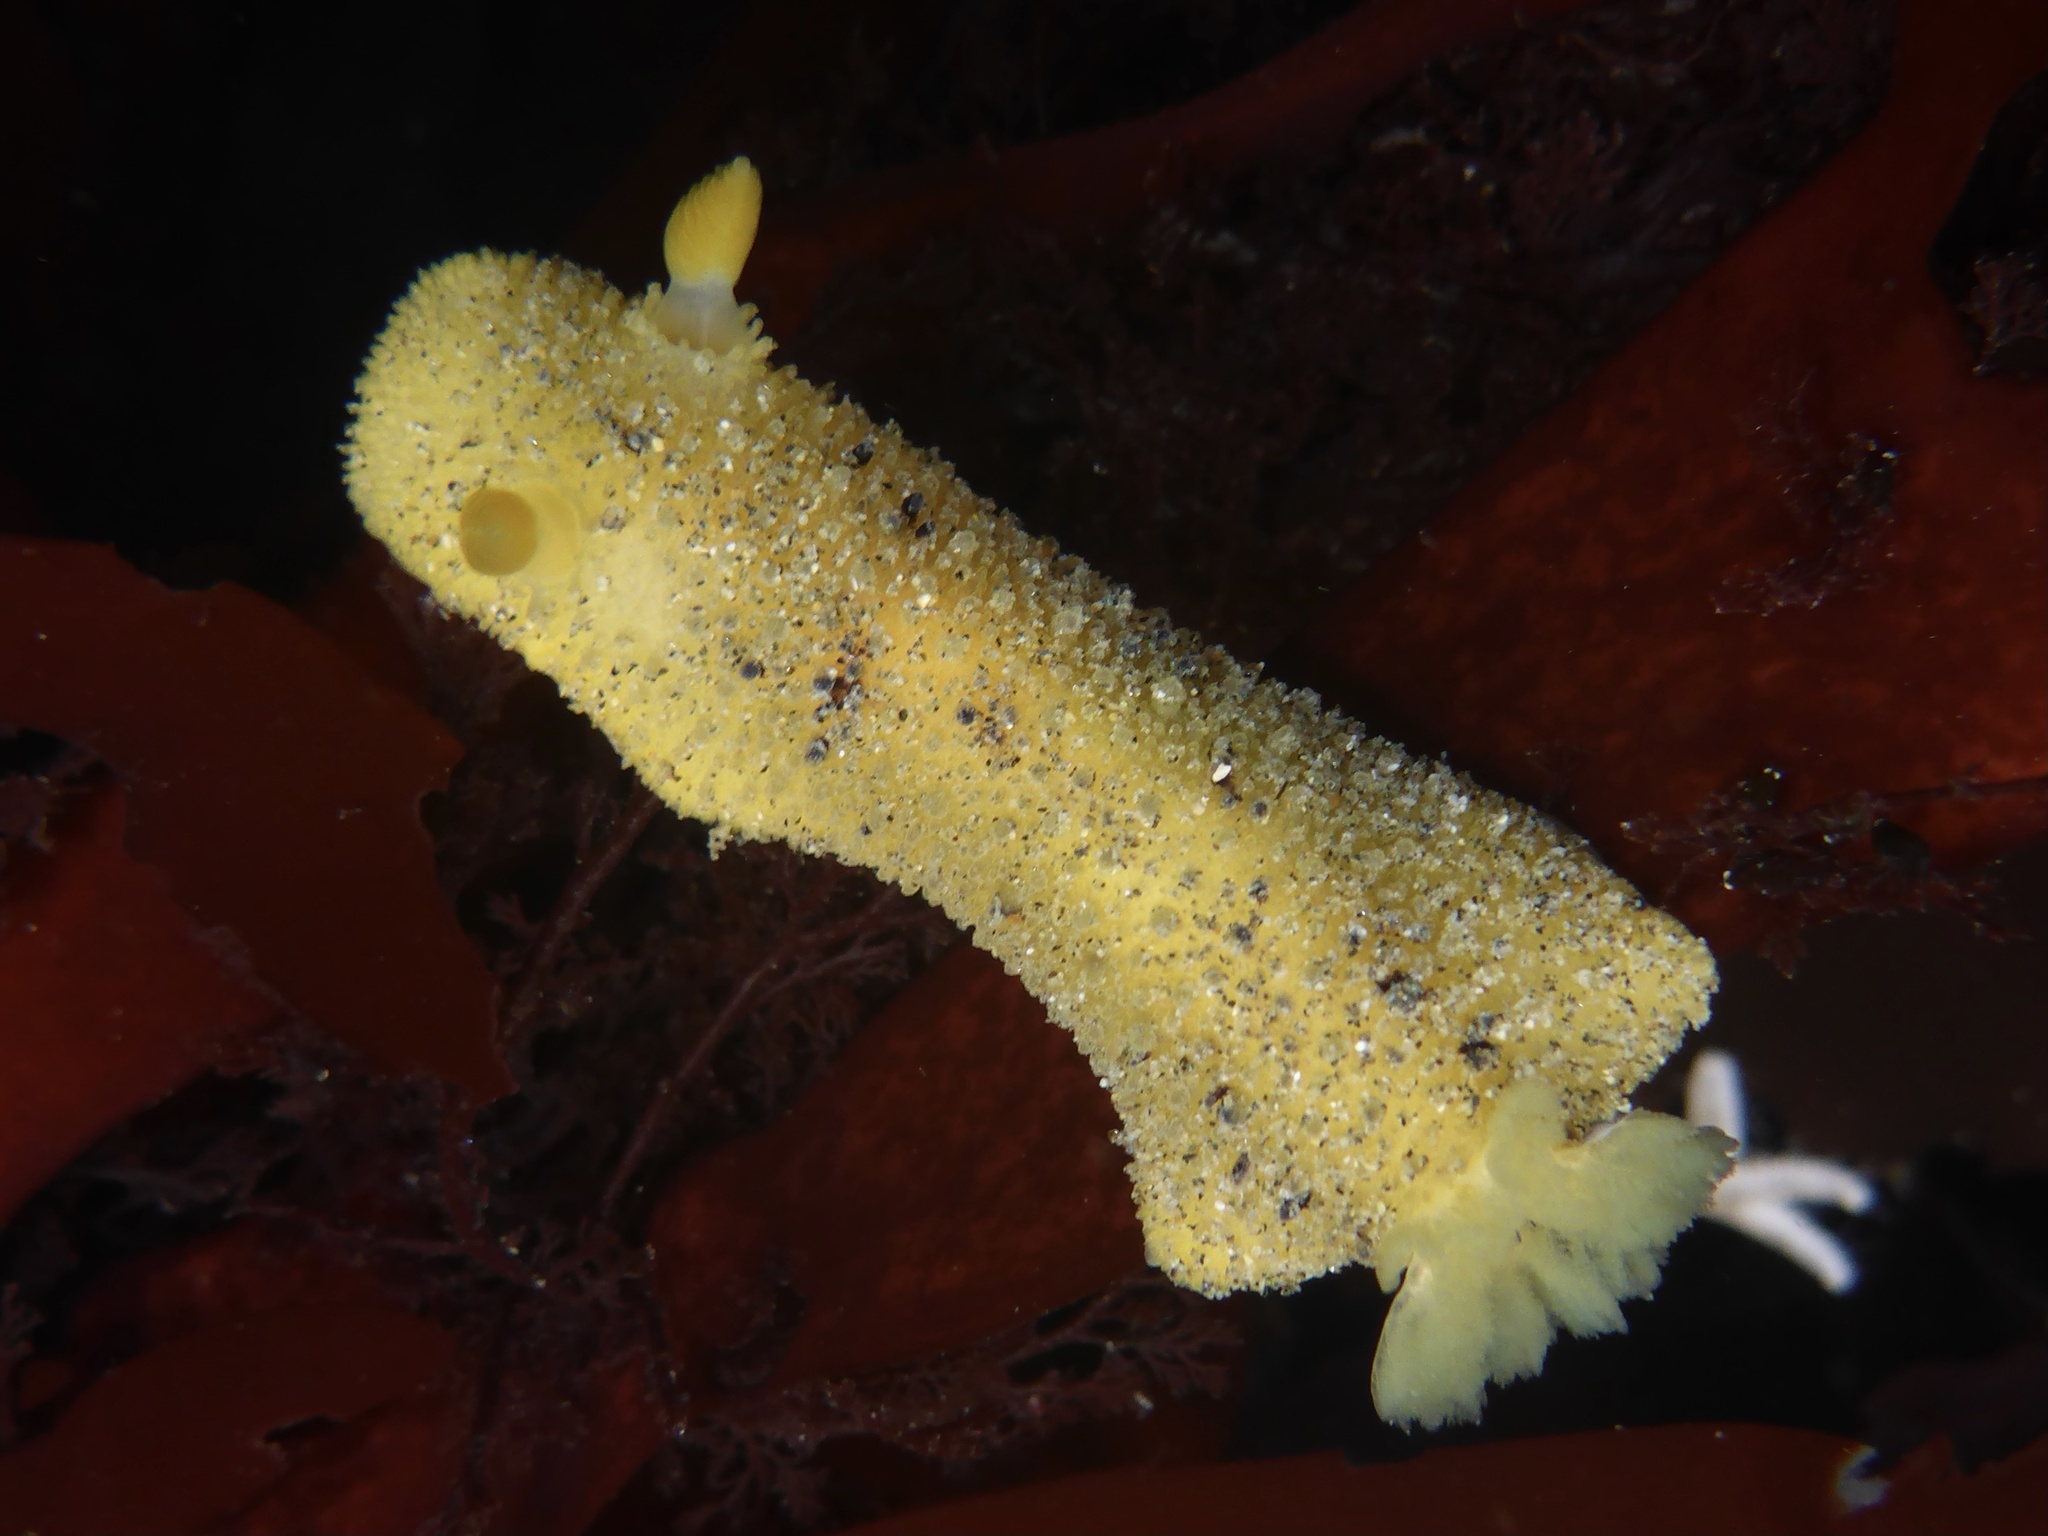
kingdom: Animalia
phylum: Mollusca
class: Gastropoda
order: Nudibranchia
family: Dorididae
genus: Doris
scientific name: Doris montereyensis
